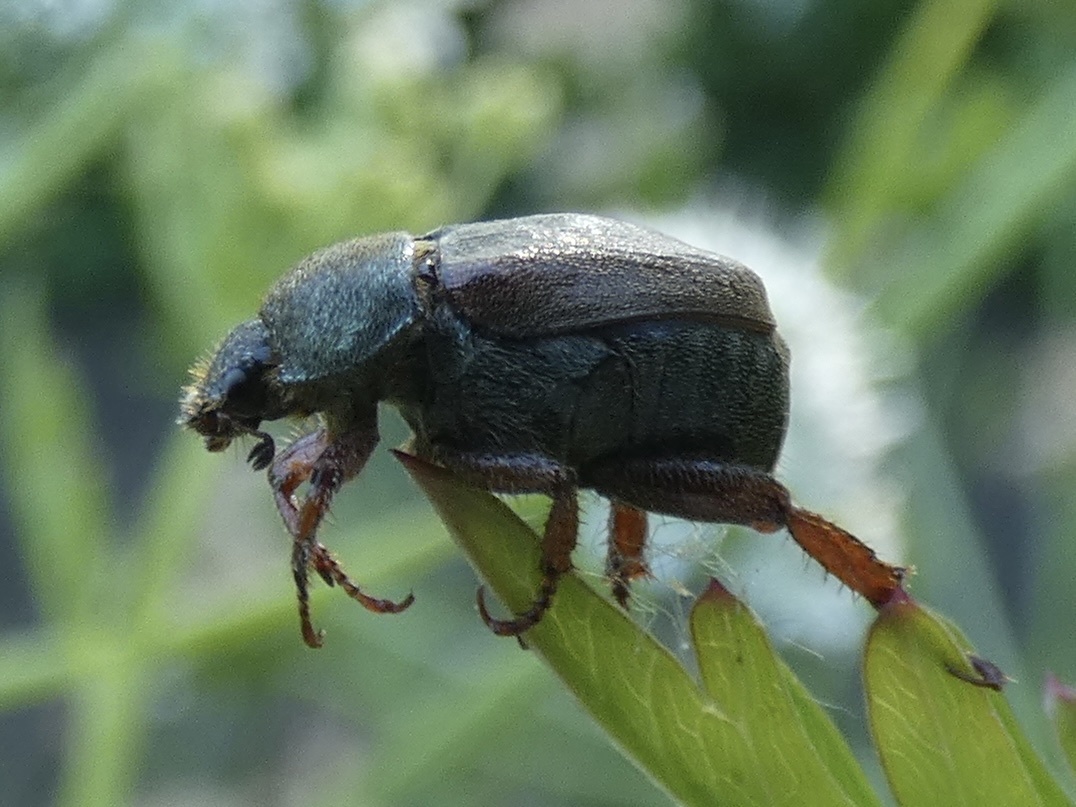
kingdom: Animalia
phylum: Arthropoda
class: Insecta
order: Coleoptera
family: Scarabaeidae
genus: Hoplia
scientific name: Hoplia philanthus
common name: Welsh chafer
